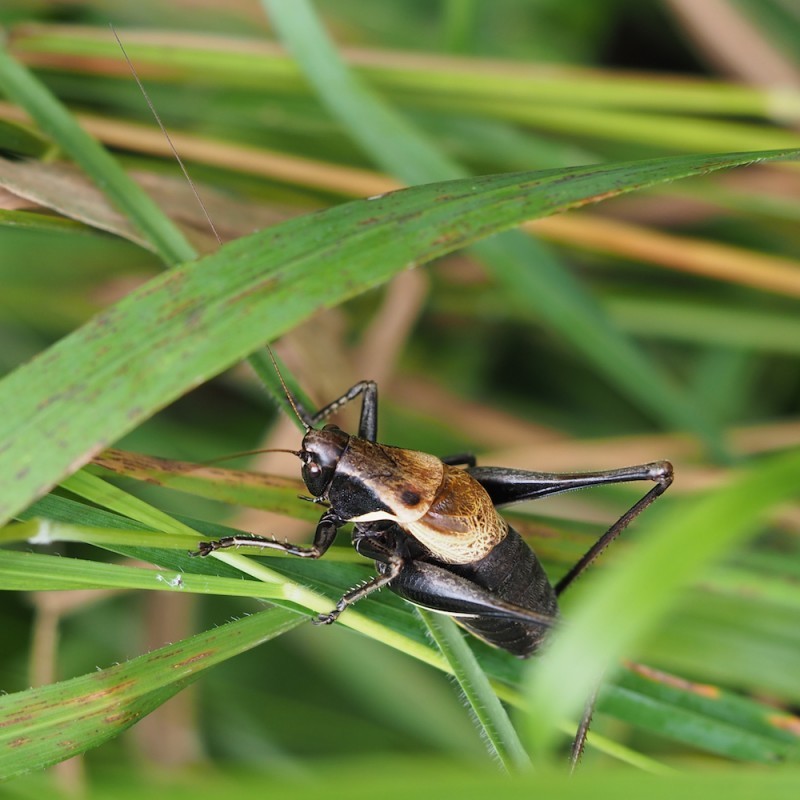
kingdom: Animalia
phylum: Arthropoda
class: Insecta
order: Orthoptera
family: Tettigoniidae
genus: Pholidoptera
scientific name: Pholidoptera aptera
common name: Alpine dark bush-cricket
